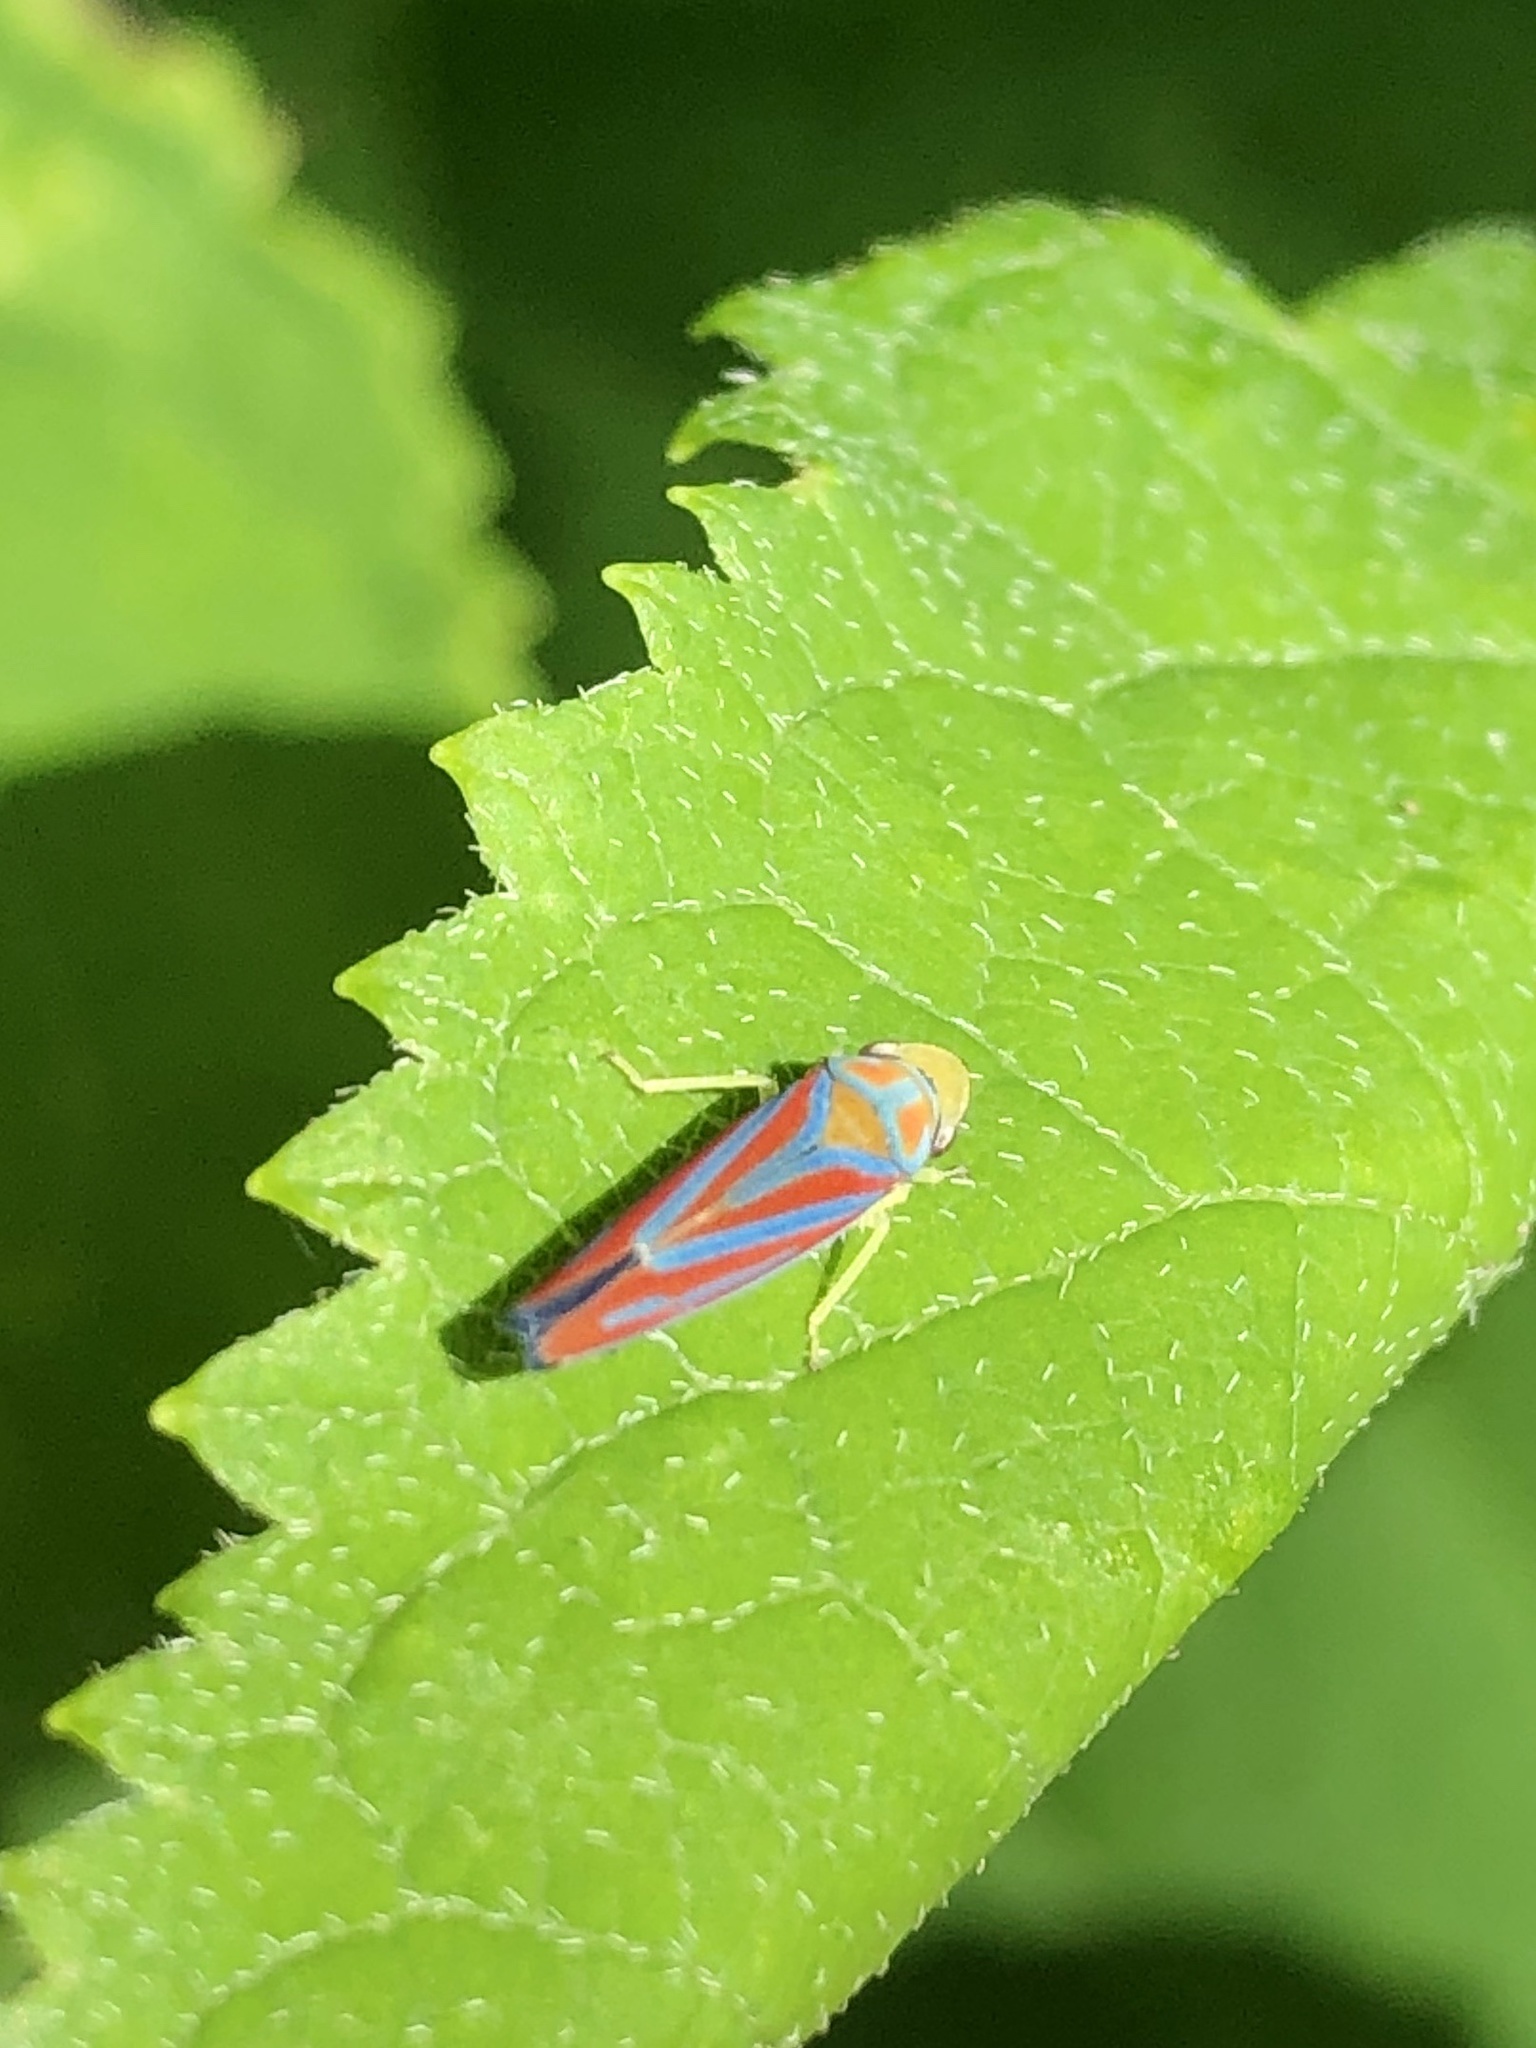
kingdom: Animalia
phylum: Arthropoda
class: Insecta
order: Hemiptera
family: Cicadellidae
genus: Graphocephala
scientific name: Graphocephala coccinea
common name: Candy-striped leafhopper
